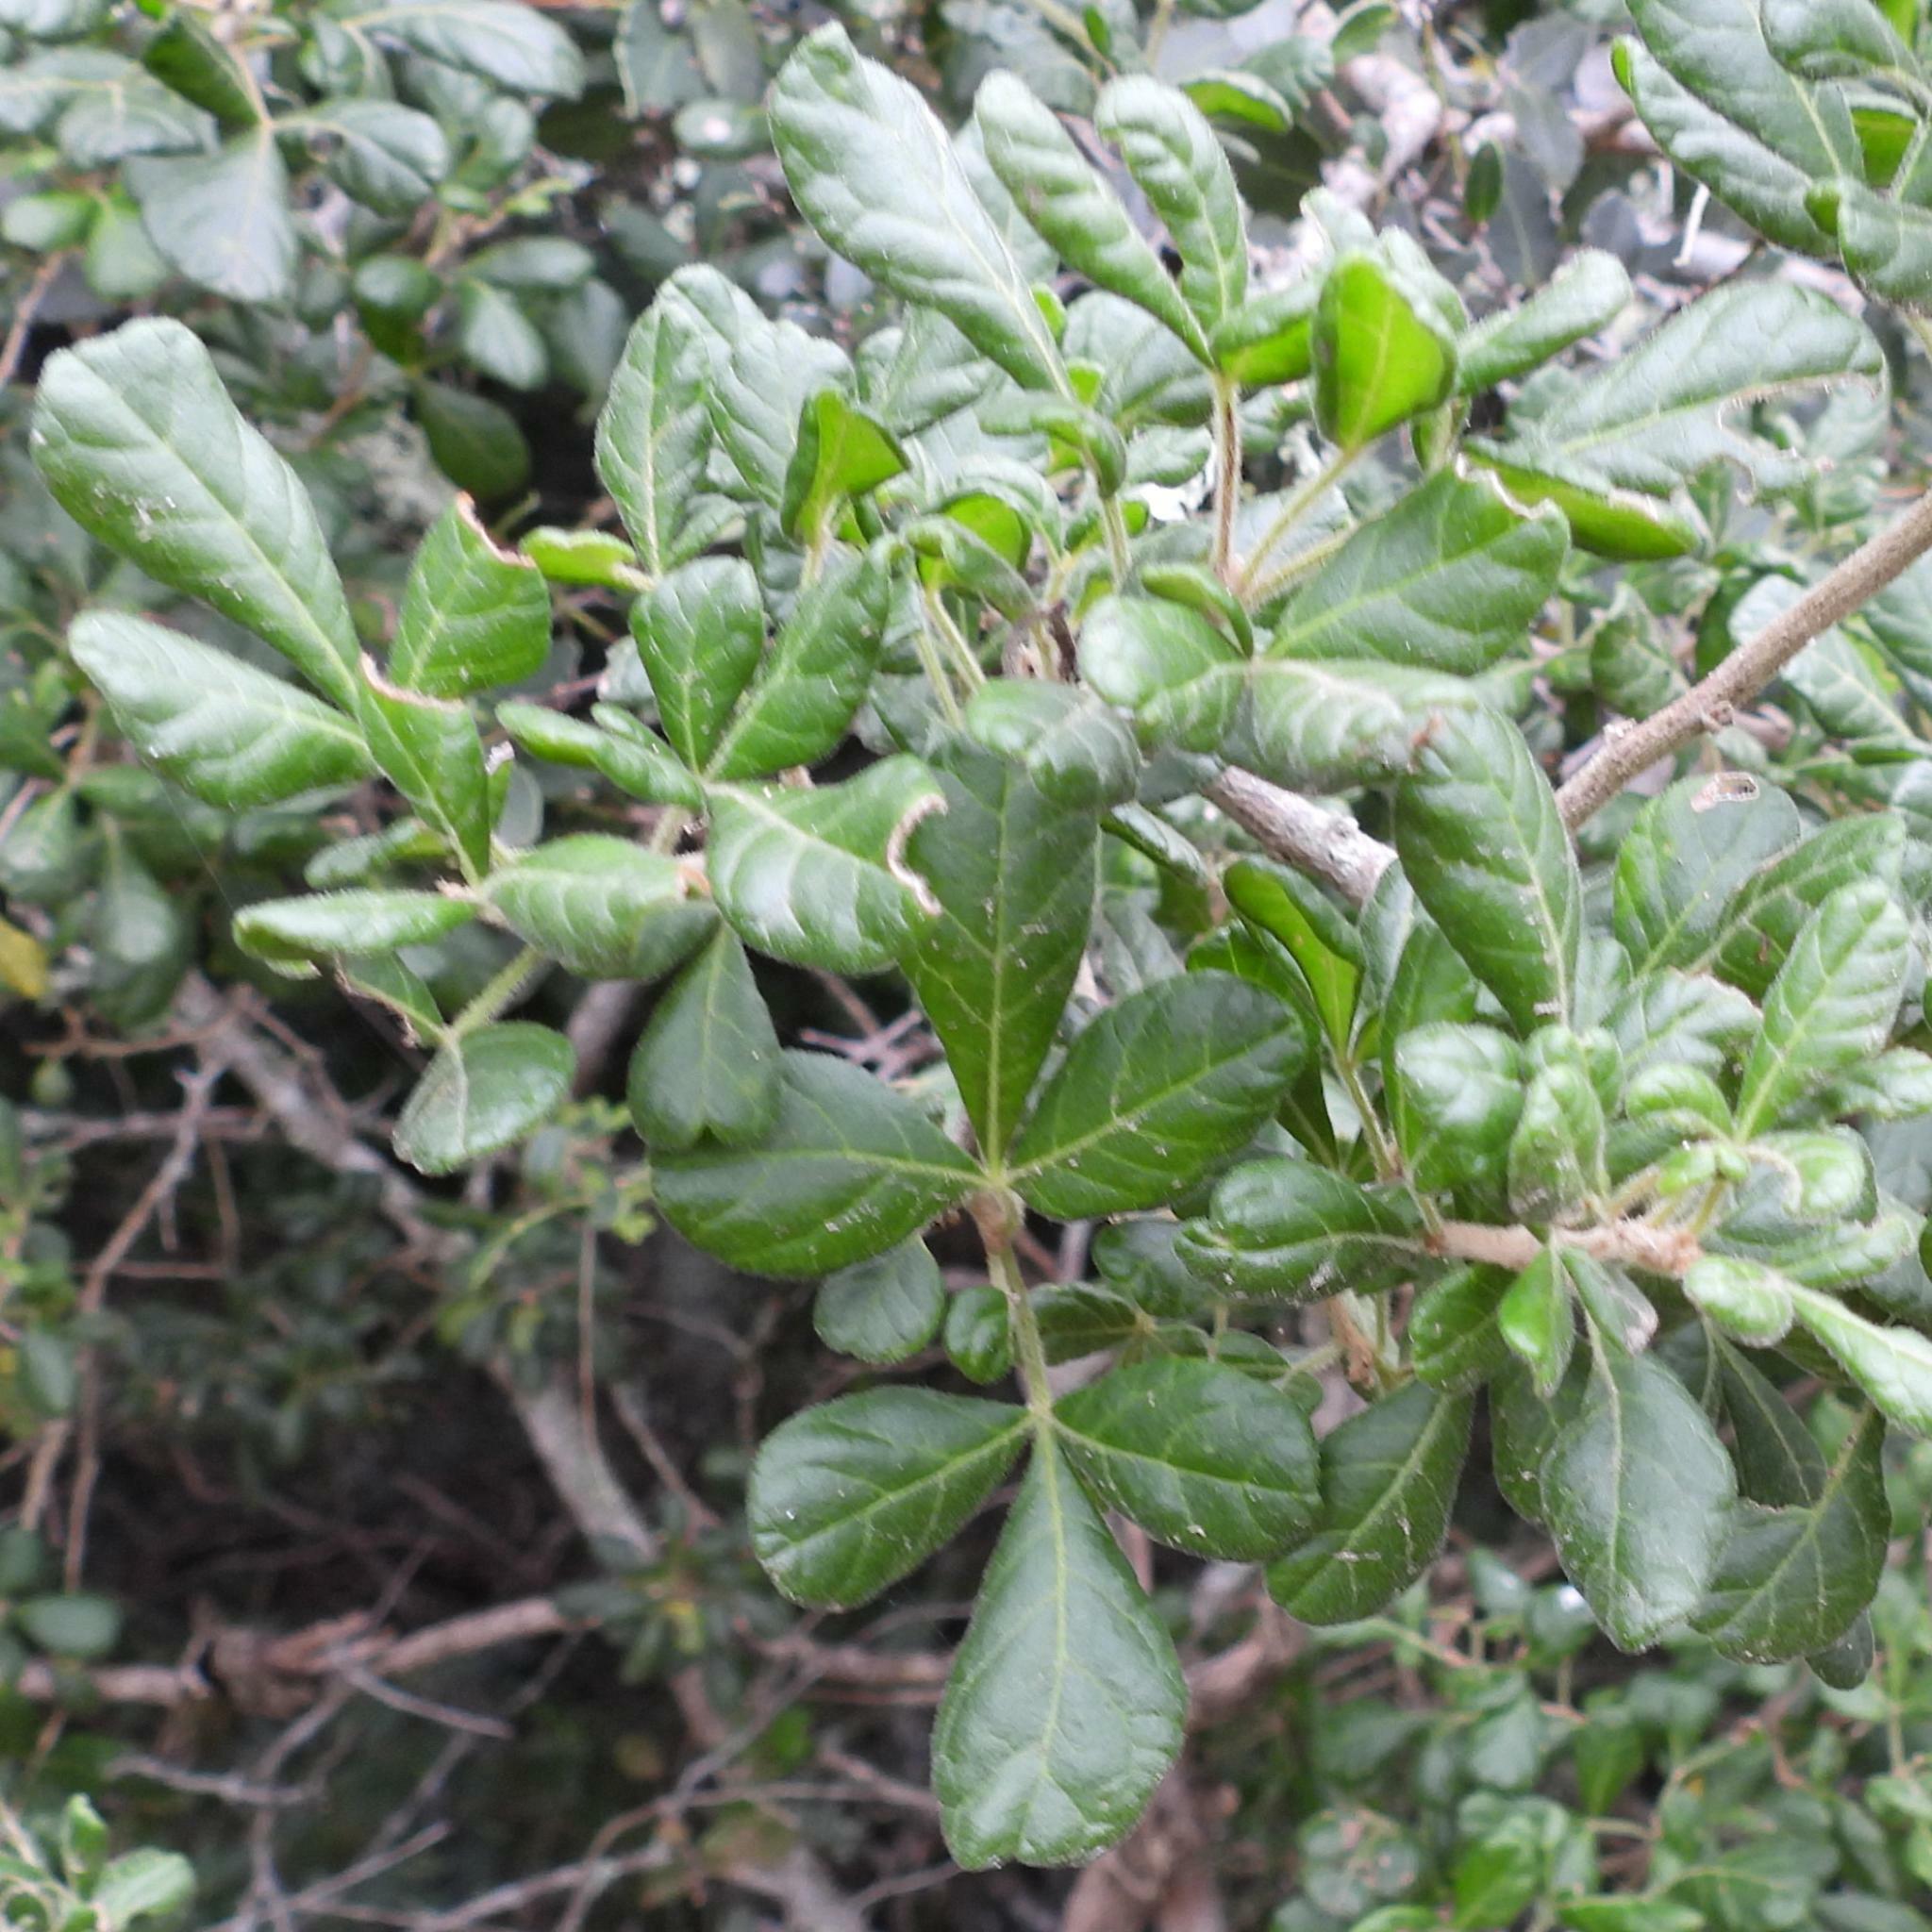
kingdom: Plantae
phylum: Tracheophyta
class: Magnoliopsida
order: Sapindales
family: Anacardiaceae
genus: Searsia
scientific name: Searsia refracta
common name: Thorny crow-berry
